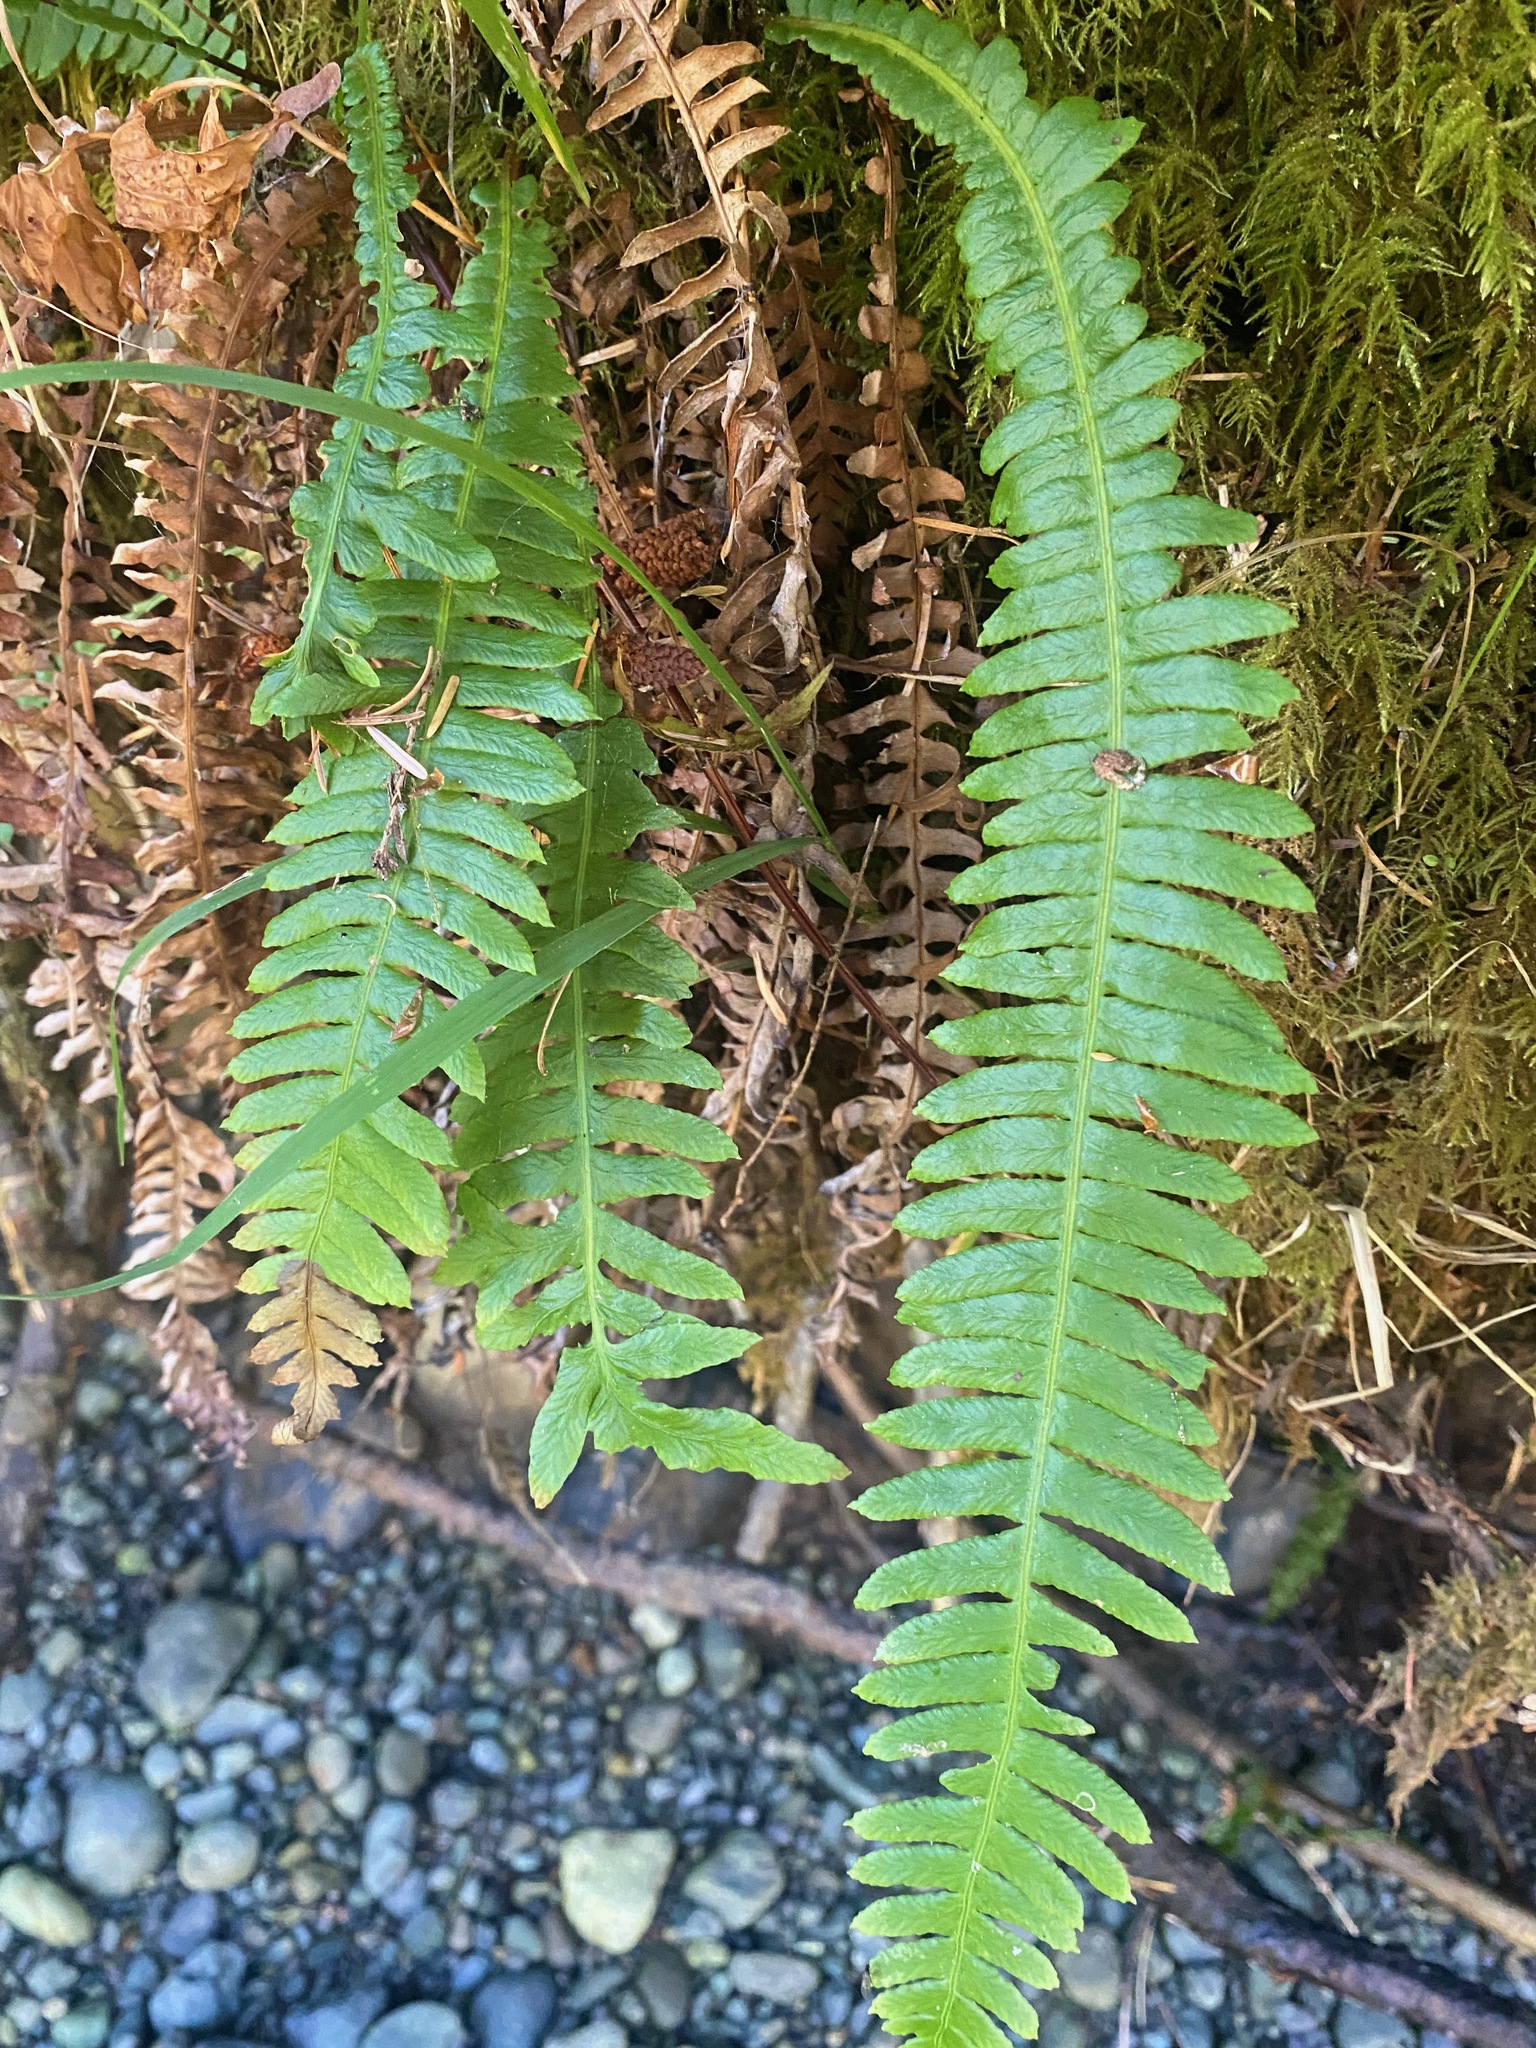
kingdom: Plantae
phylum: Tracheophyta
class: Polypodiopsida
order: Polypodiales
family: Blechnaceae
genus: Struthiopteris
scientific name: Struthiopteris spicant
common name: Deer fern
